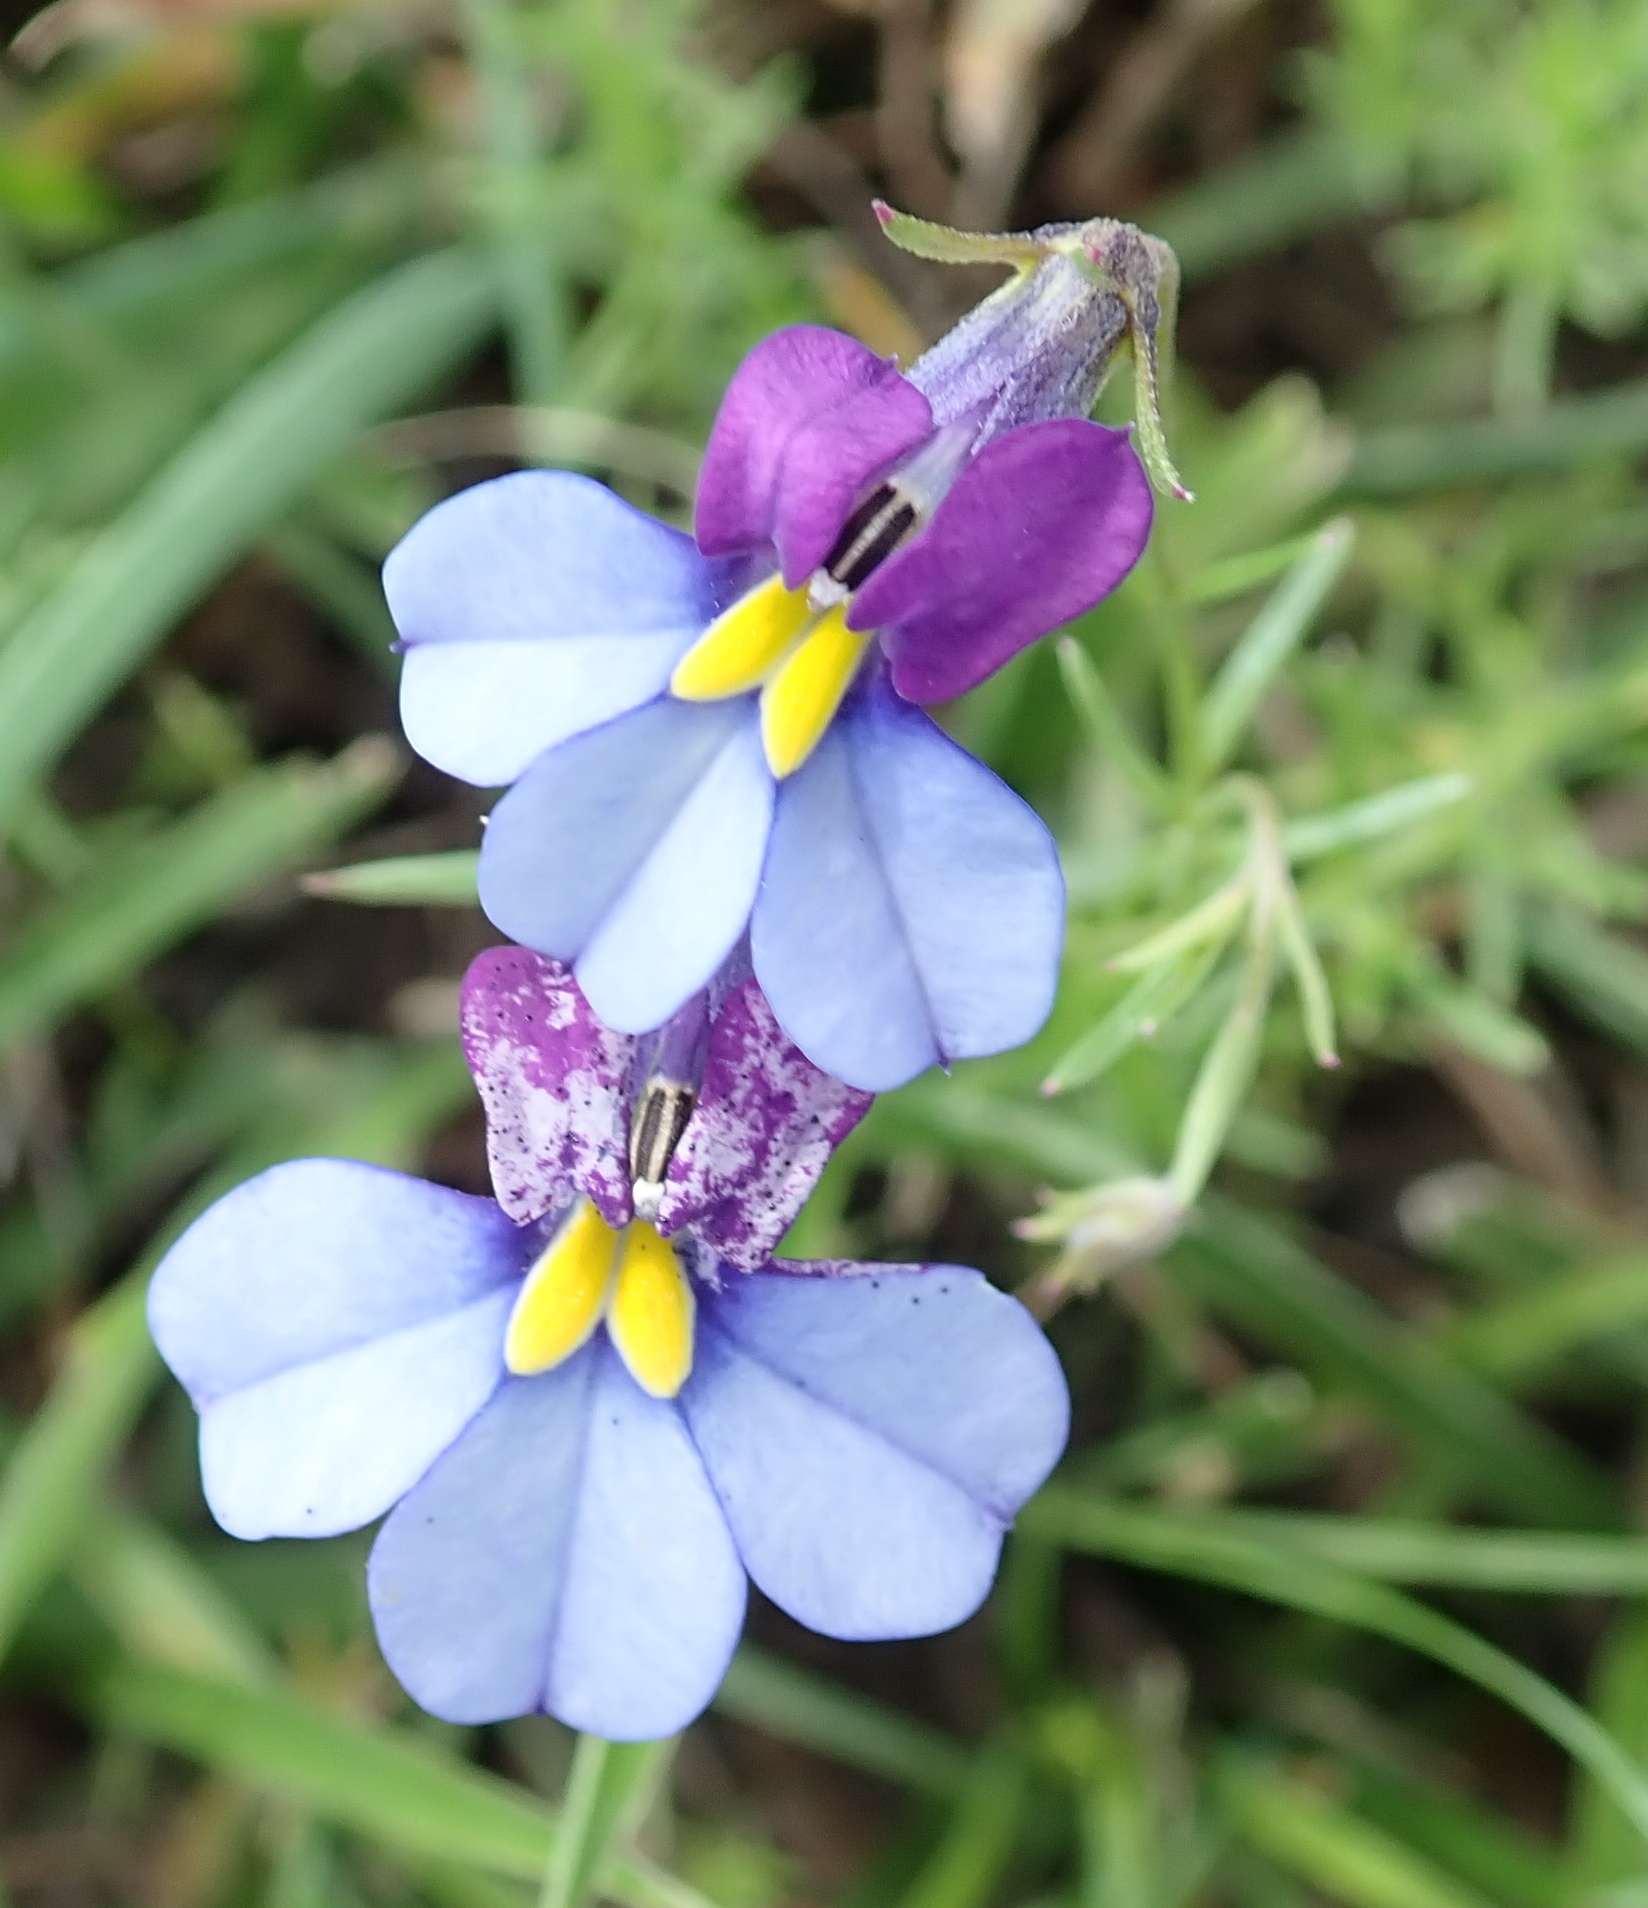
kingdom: Plantae
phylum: Tracheophyta
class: Magnoliopsida
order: Asterales
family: Campanulaceae
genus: Monopsis
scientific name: Monopsis decipiens
